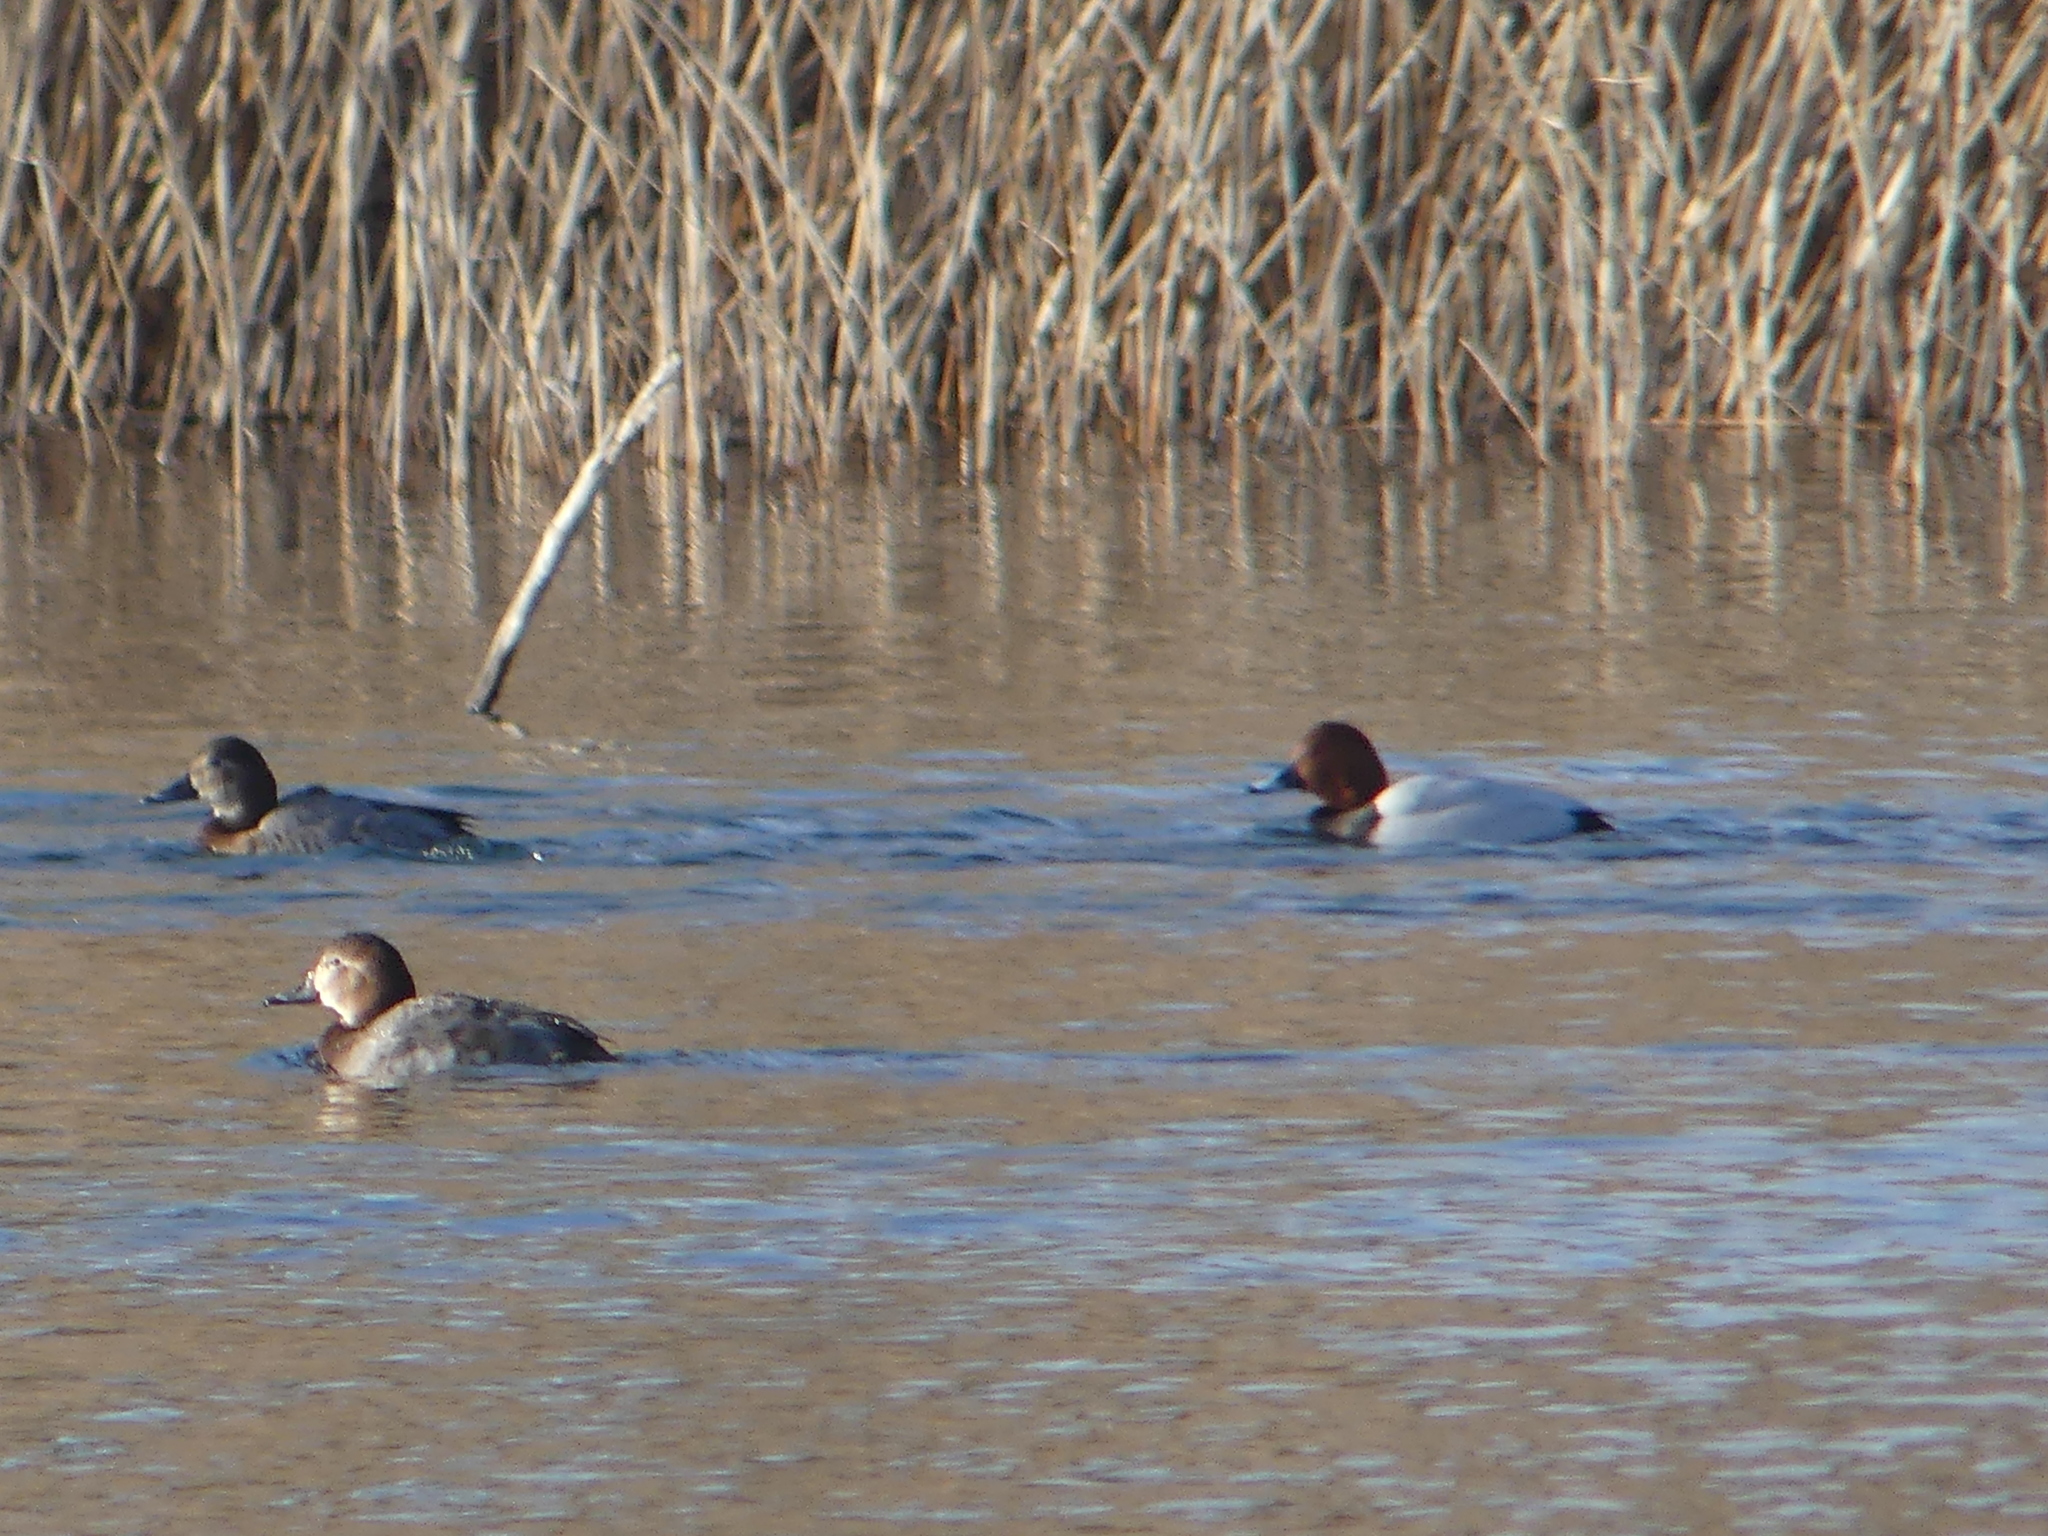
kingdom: Animalia
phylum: Chordata
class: Aves
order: Anseriformes
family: Anatidae
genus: Aythya
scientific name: Aythya ferina
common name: Common pochard
